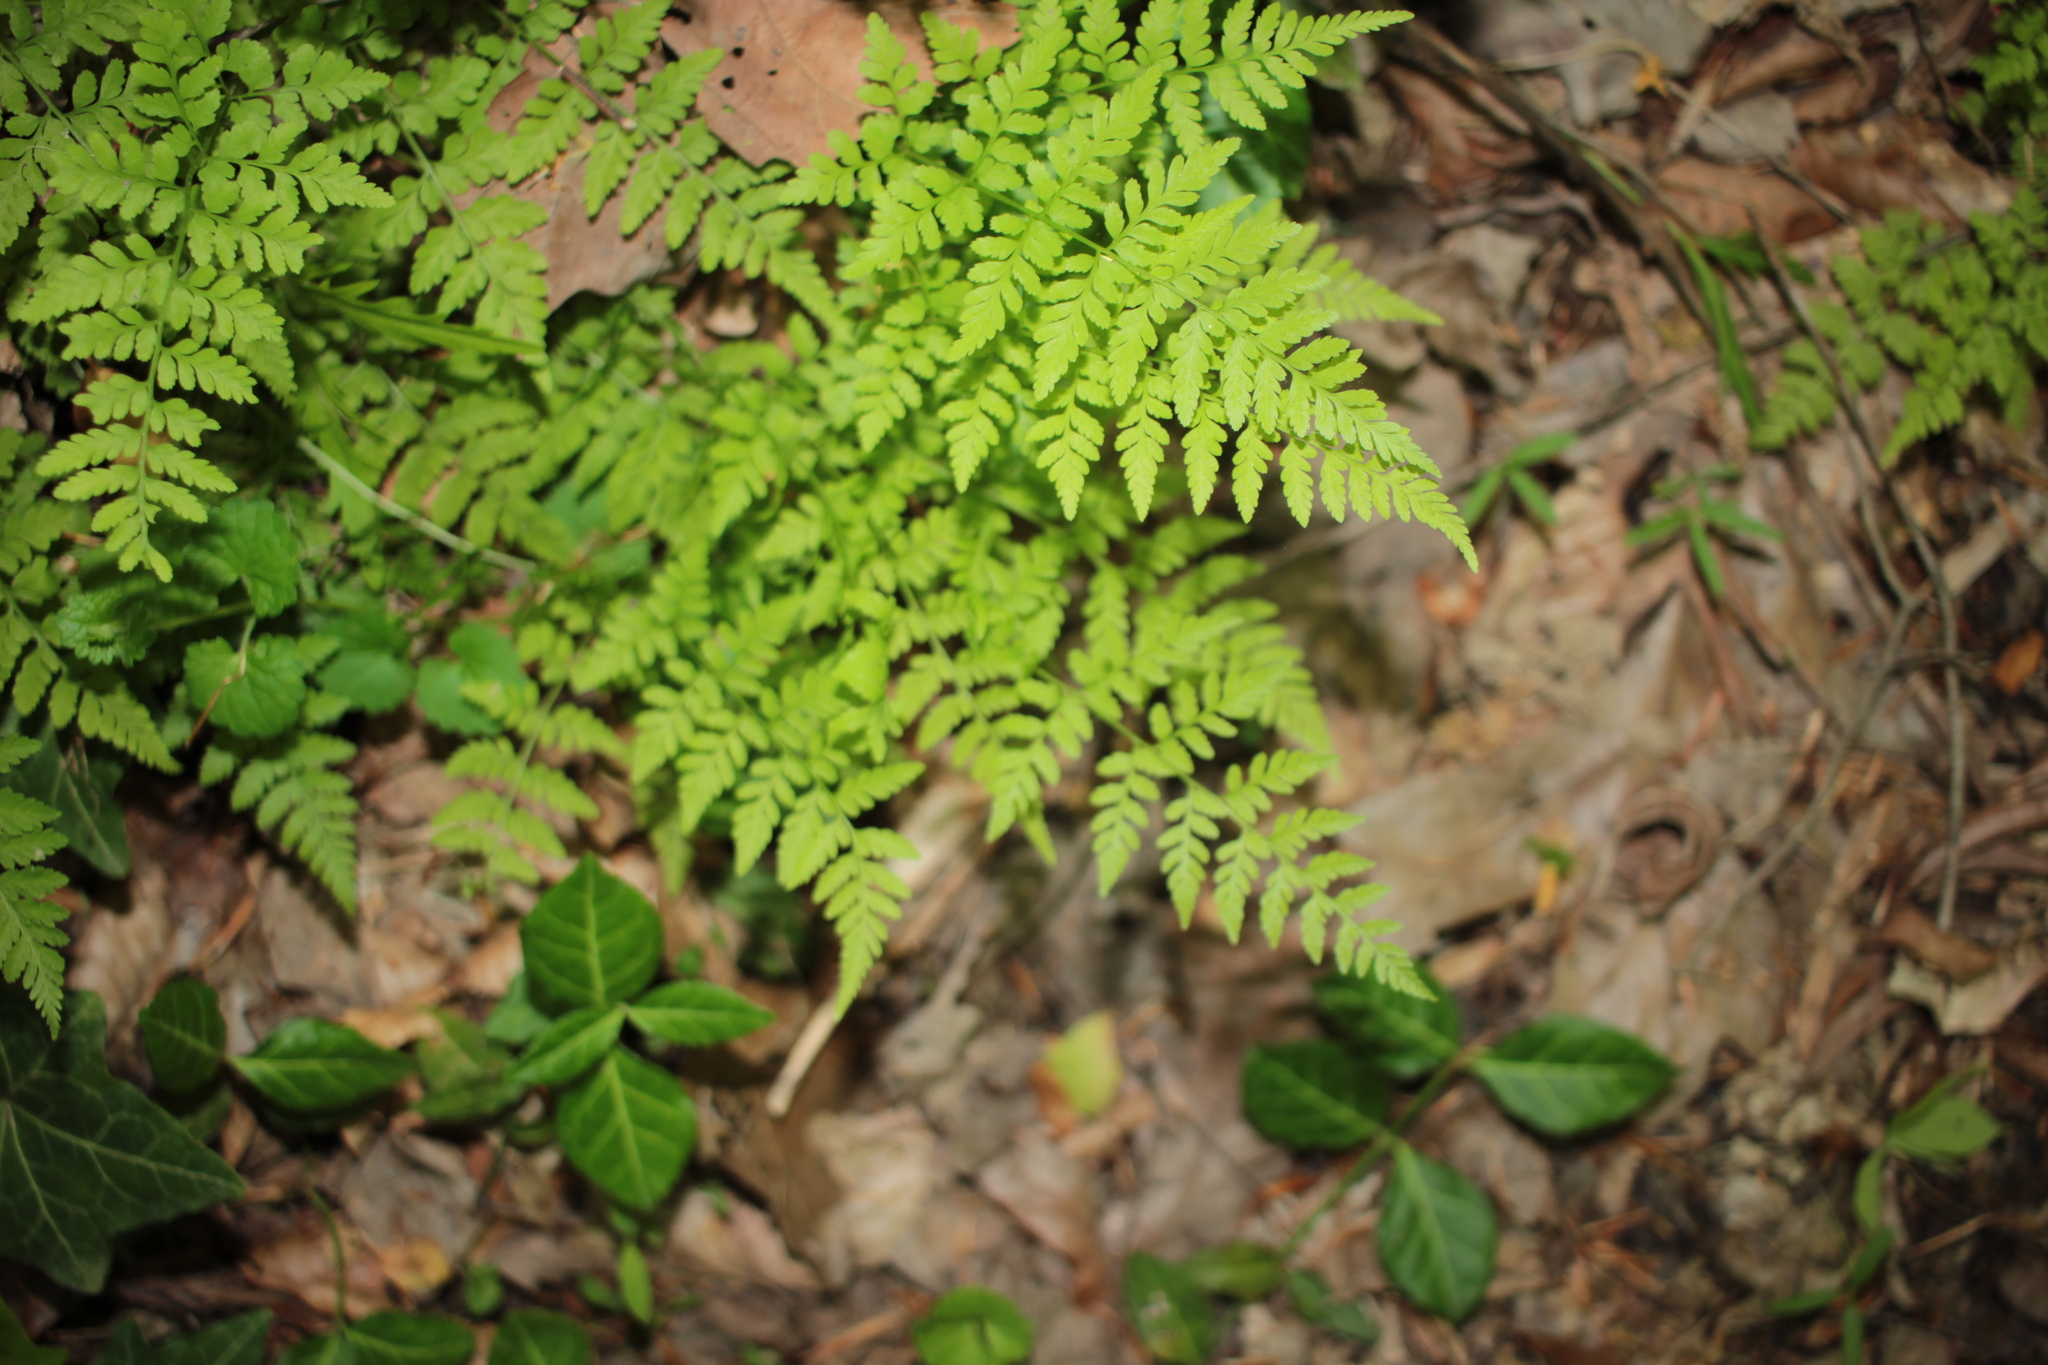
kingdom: Plantae
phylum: Tracheophyta
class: Polypodiopsida
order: Polypodiales
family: Cystopteridaceae
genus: Cystopteris
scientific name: Cystopteris protrusa
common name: Lowland brittle fern
